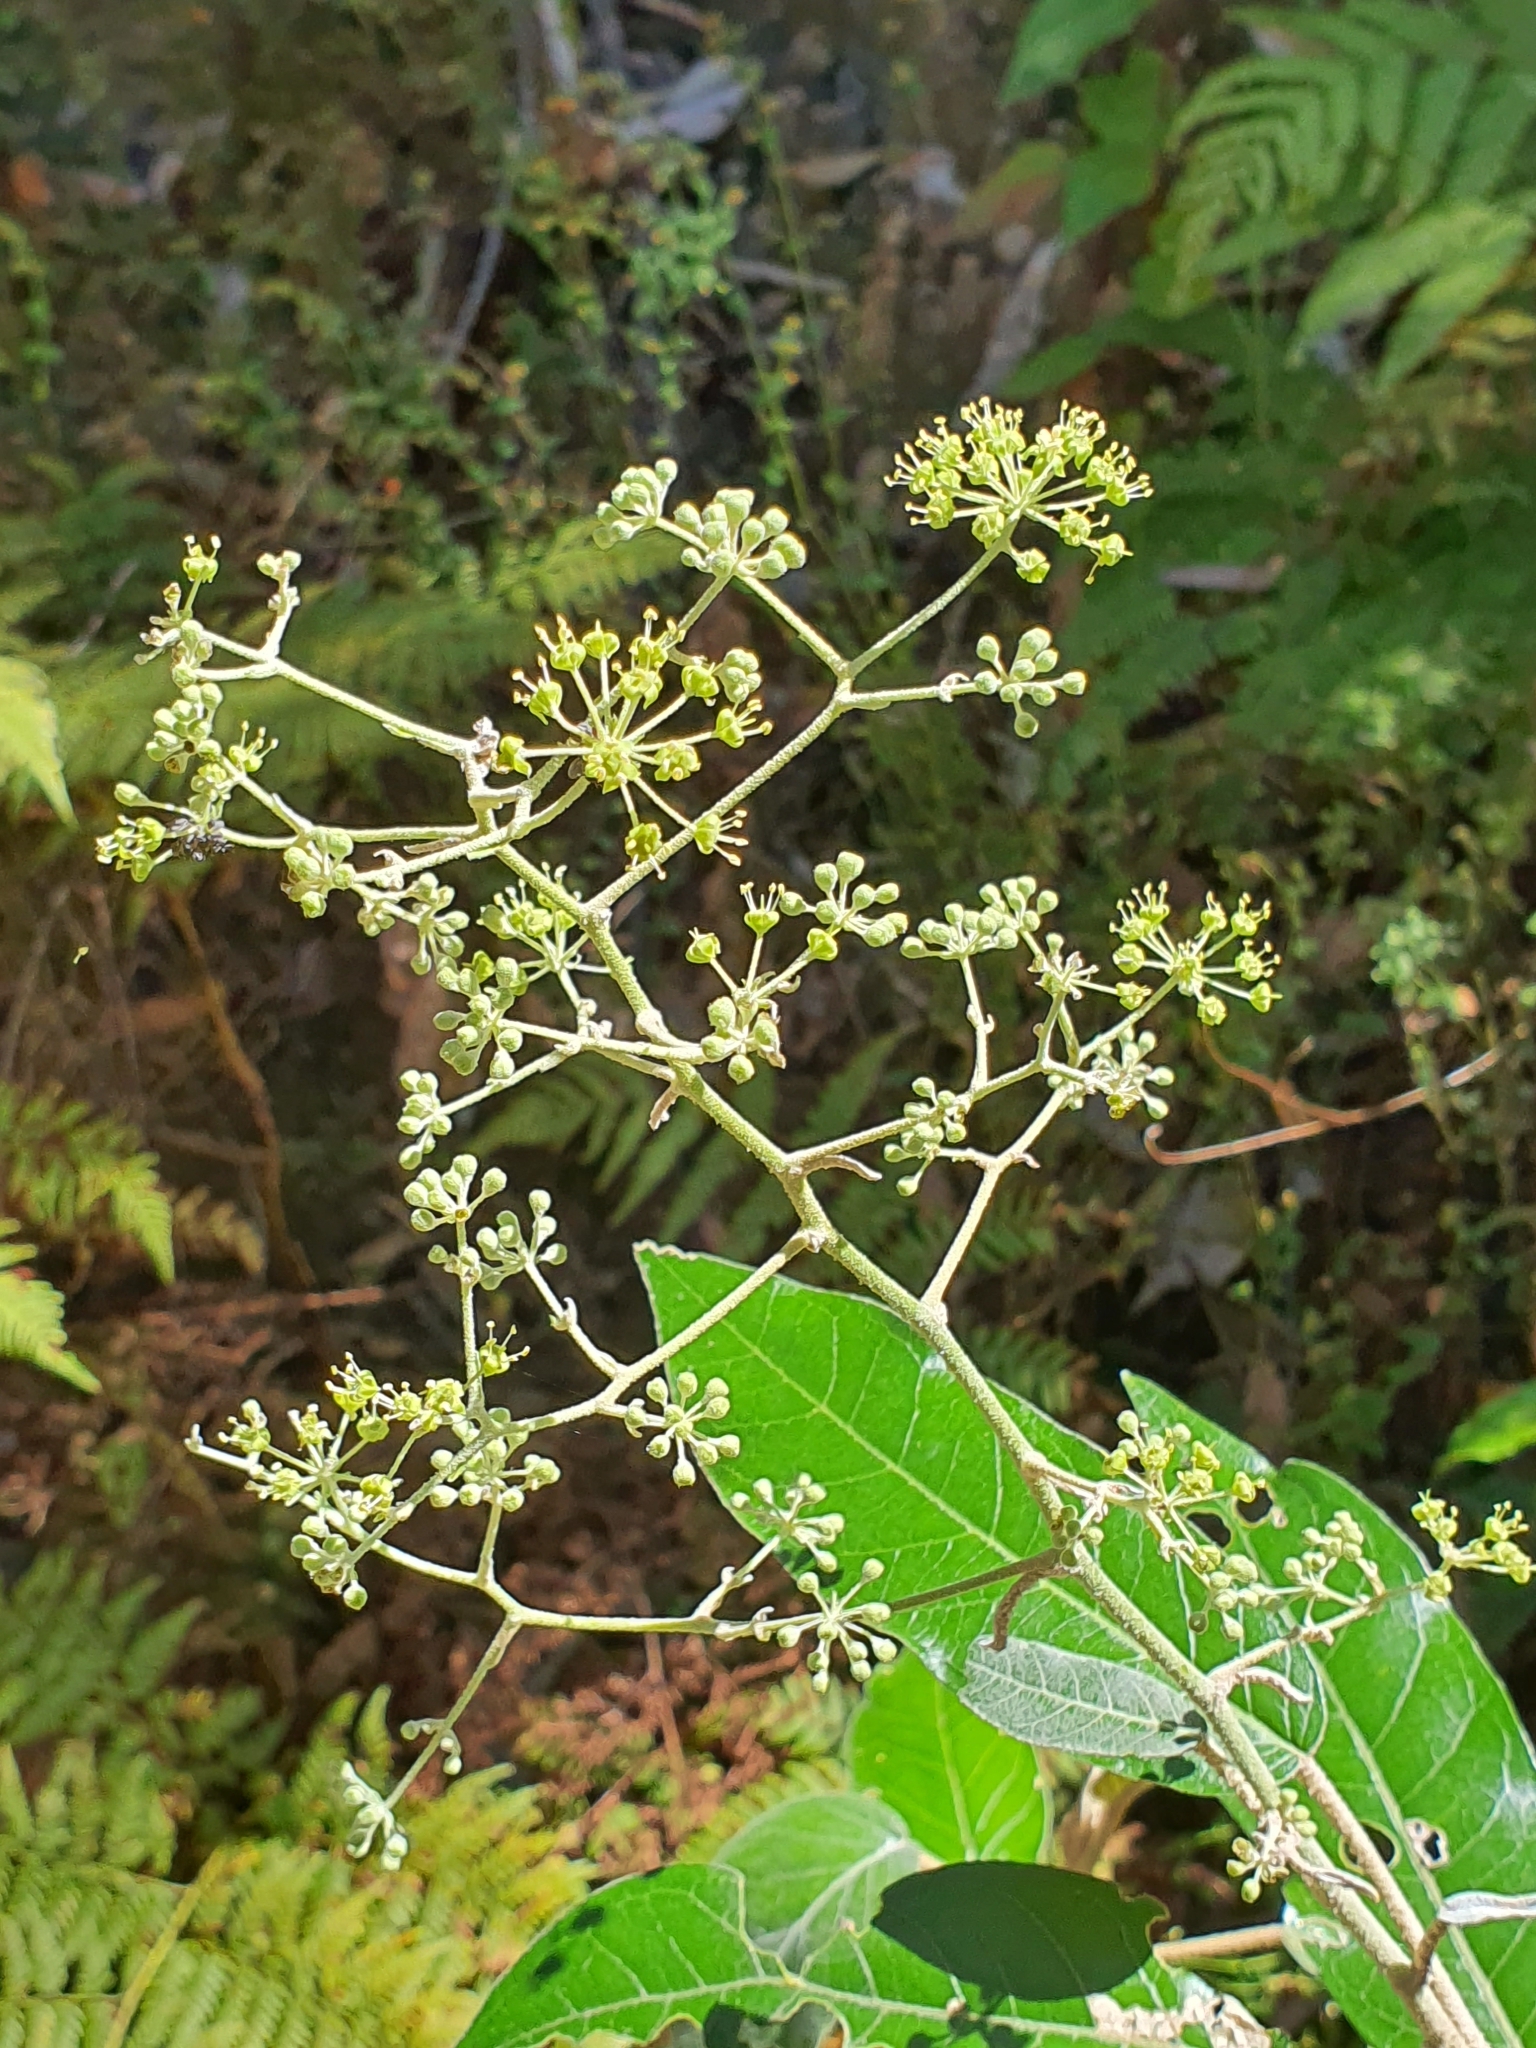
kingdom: Plantae
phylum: Tracheophyta
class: Magnoliopsida
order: Apiales
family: Araliaceae
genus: Astrotricha
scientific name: Astrotricha latifolia
